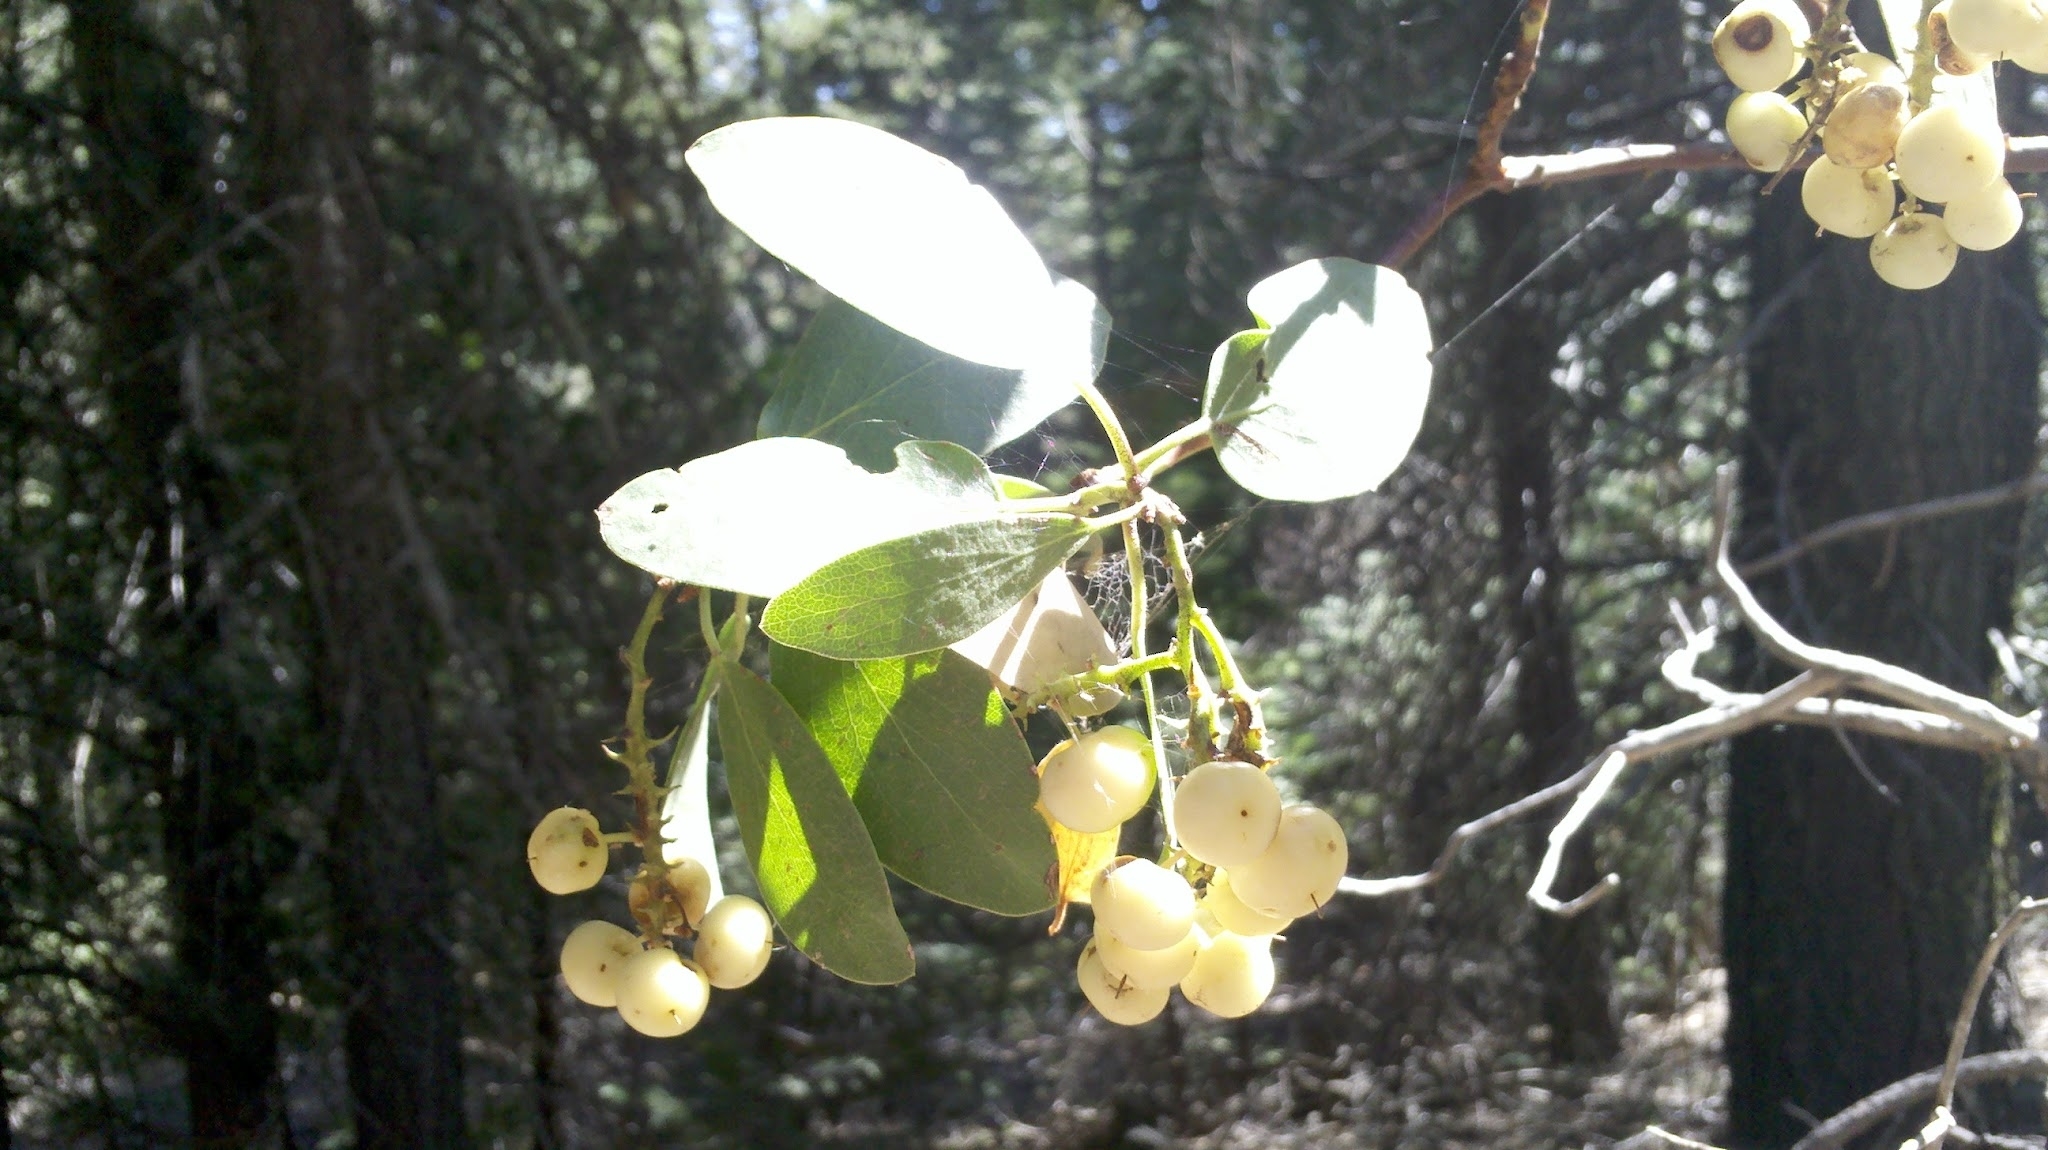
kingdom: Plantae
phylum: Tracheophyta
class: Magnoliopsida
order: Dipsacales
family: Caprifoliaceae
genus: Symphoricarpos
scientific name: Symphoricarpos albus
